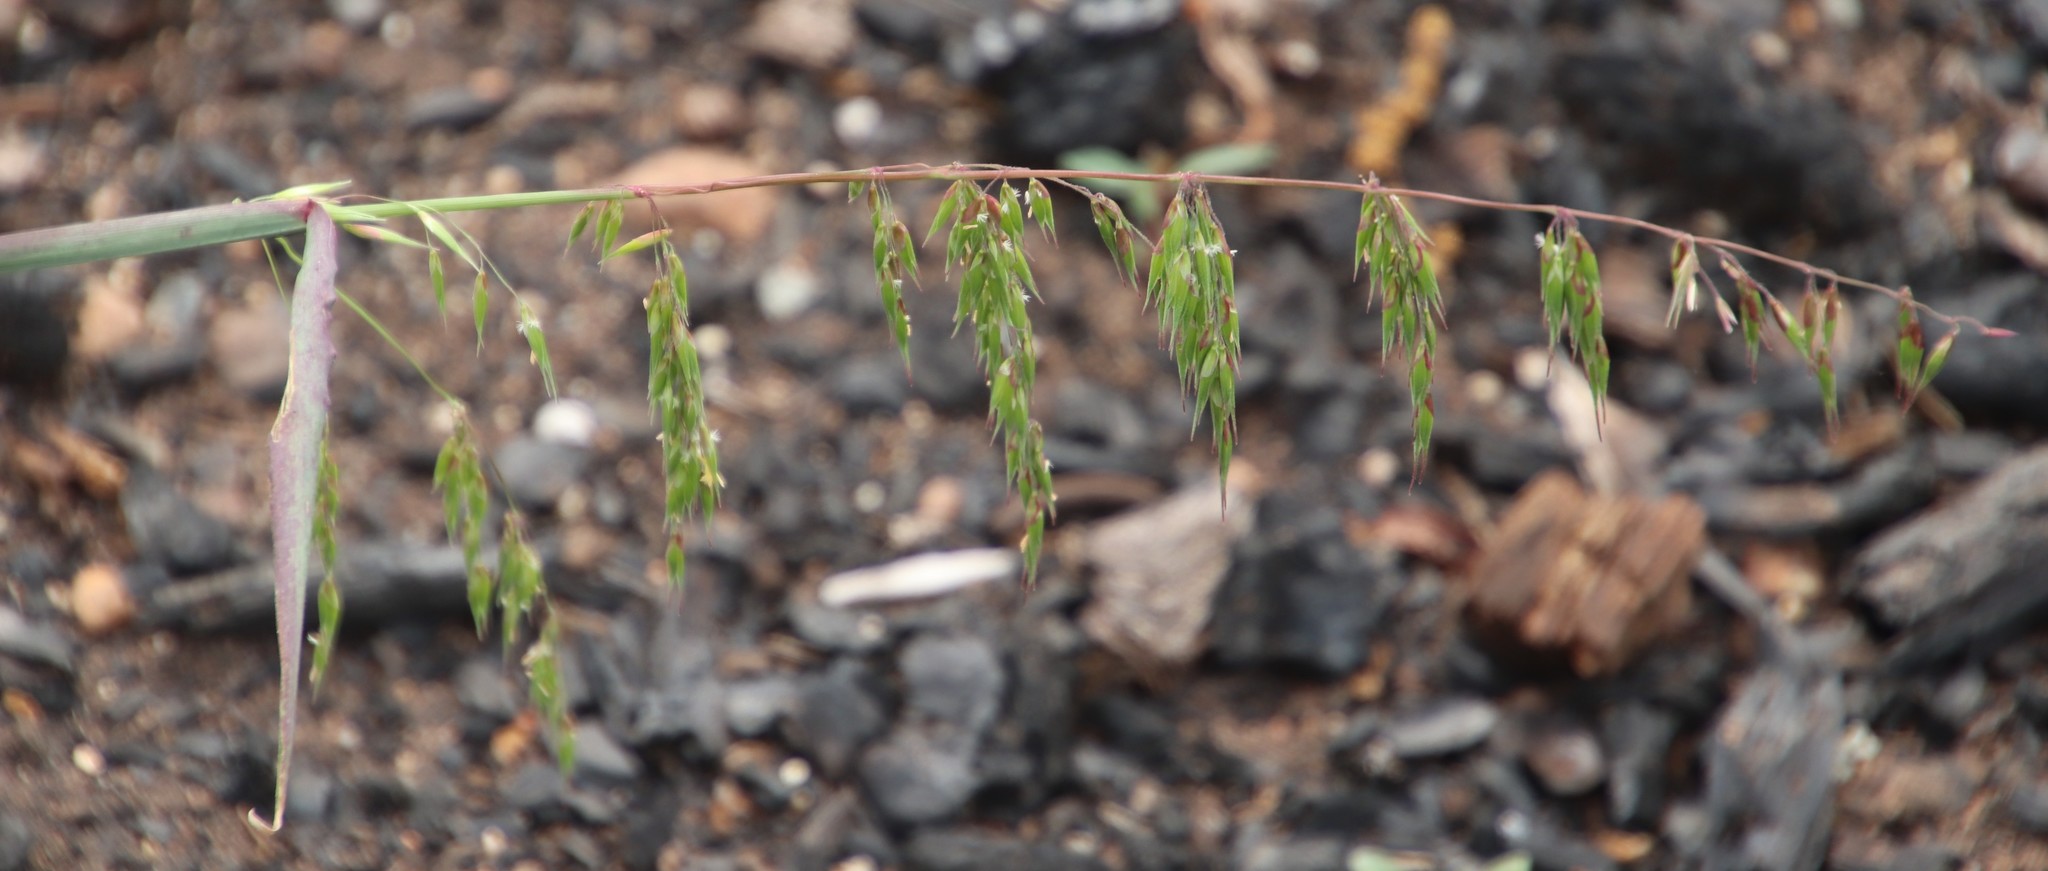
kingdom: Plantae
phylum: Tracheophyta
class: Liliopsida
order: Poales
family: Poaceae
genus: Ehrharta
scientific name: Ehrharta longiflora
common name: Longflowered veldtgrass
